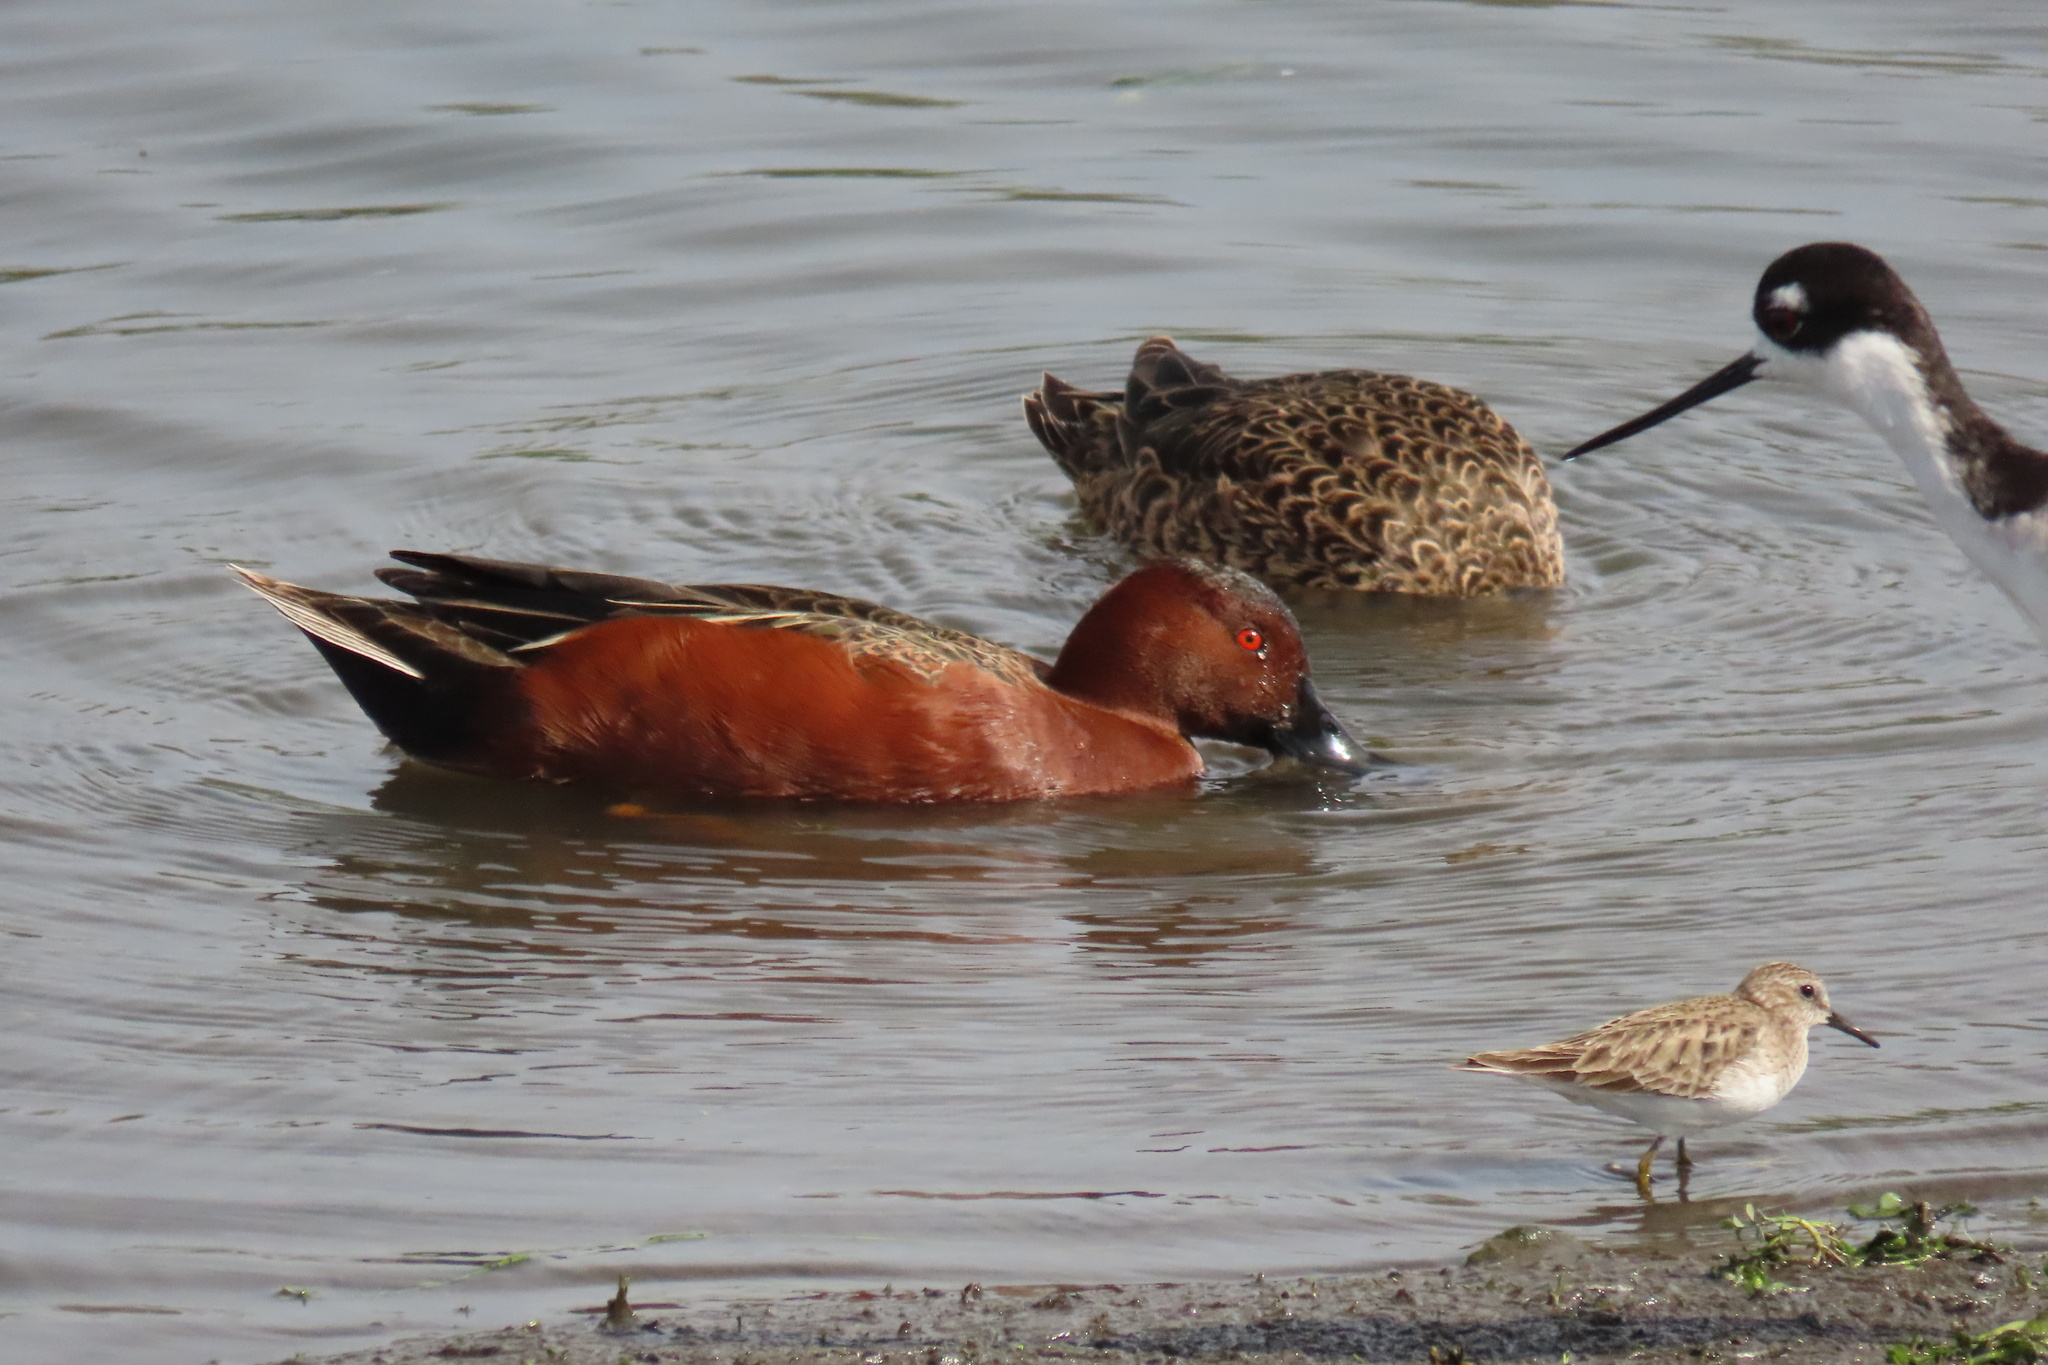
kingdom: Animalia
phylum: Chordata
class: Aves
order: Anseriformes
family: Anatidae
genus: Spatula
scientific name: Spatula cyanoptera
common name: Cinnamon teal
